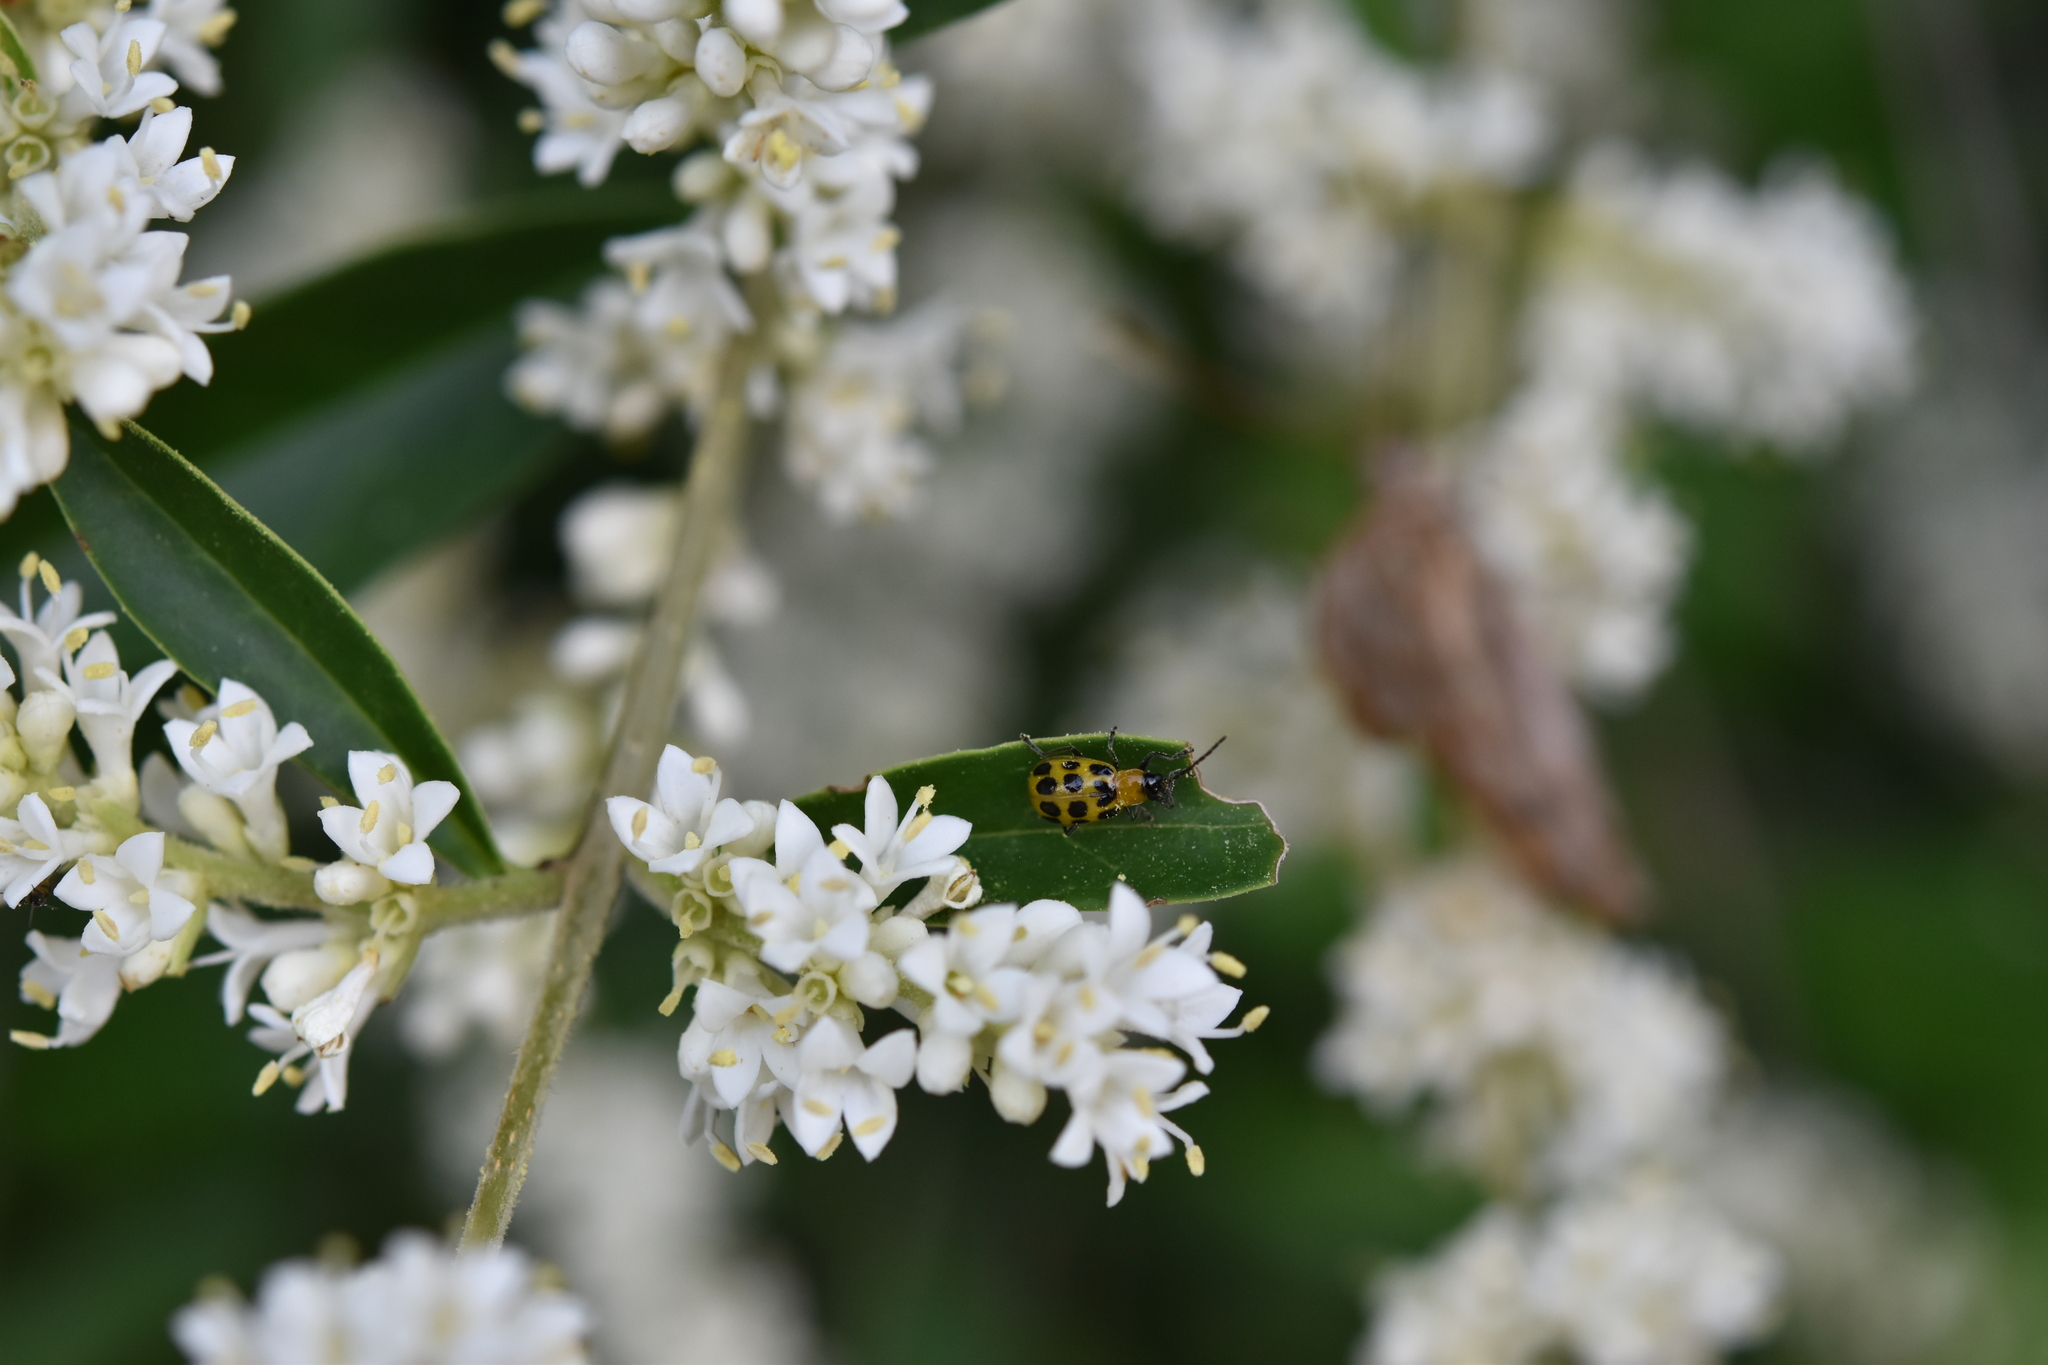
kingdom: Animalia
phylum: Arthropoda
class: Insecta
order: Coleoptera
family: Chrysomelidae
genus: Diabrotica
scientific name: Diabrotica undecimpunctata
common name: Spotted cucumber beetle
